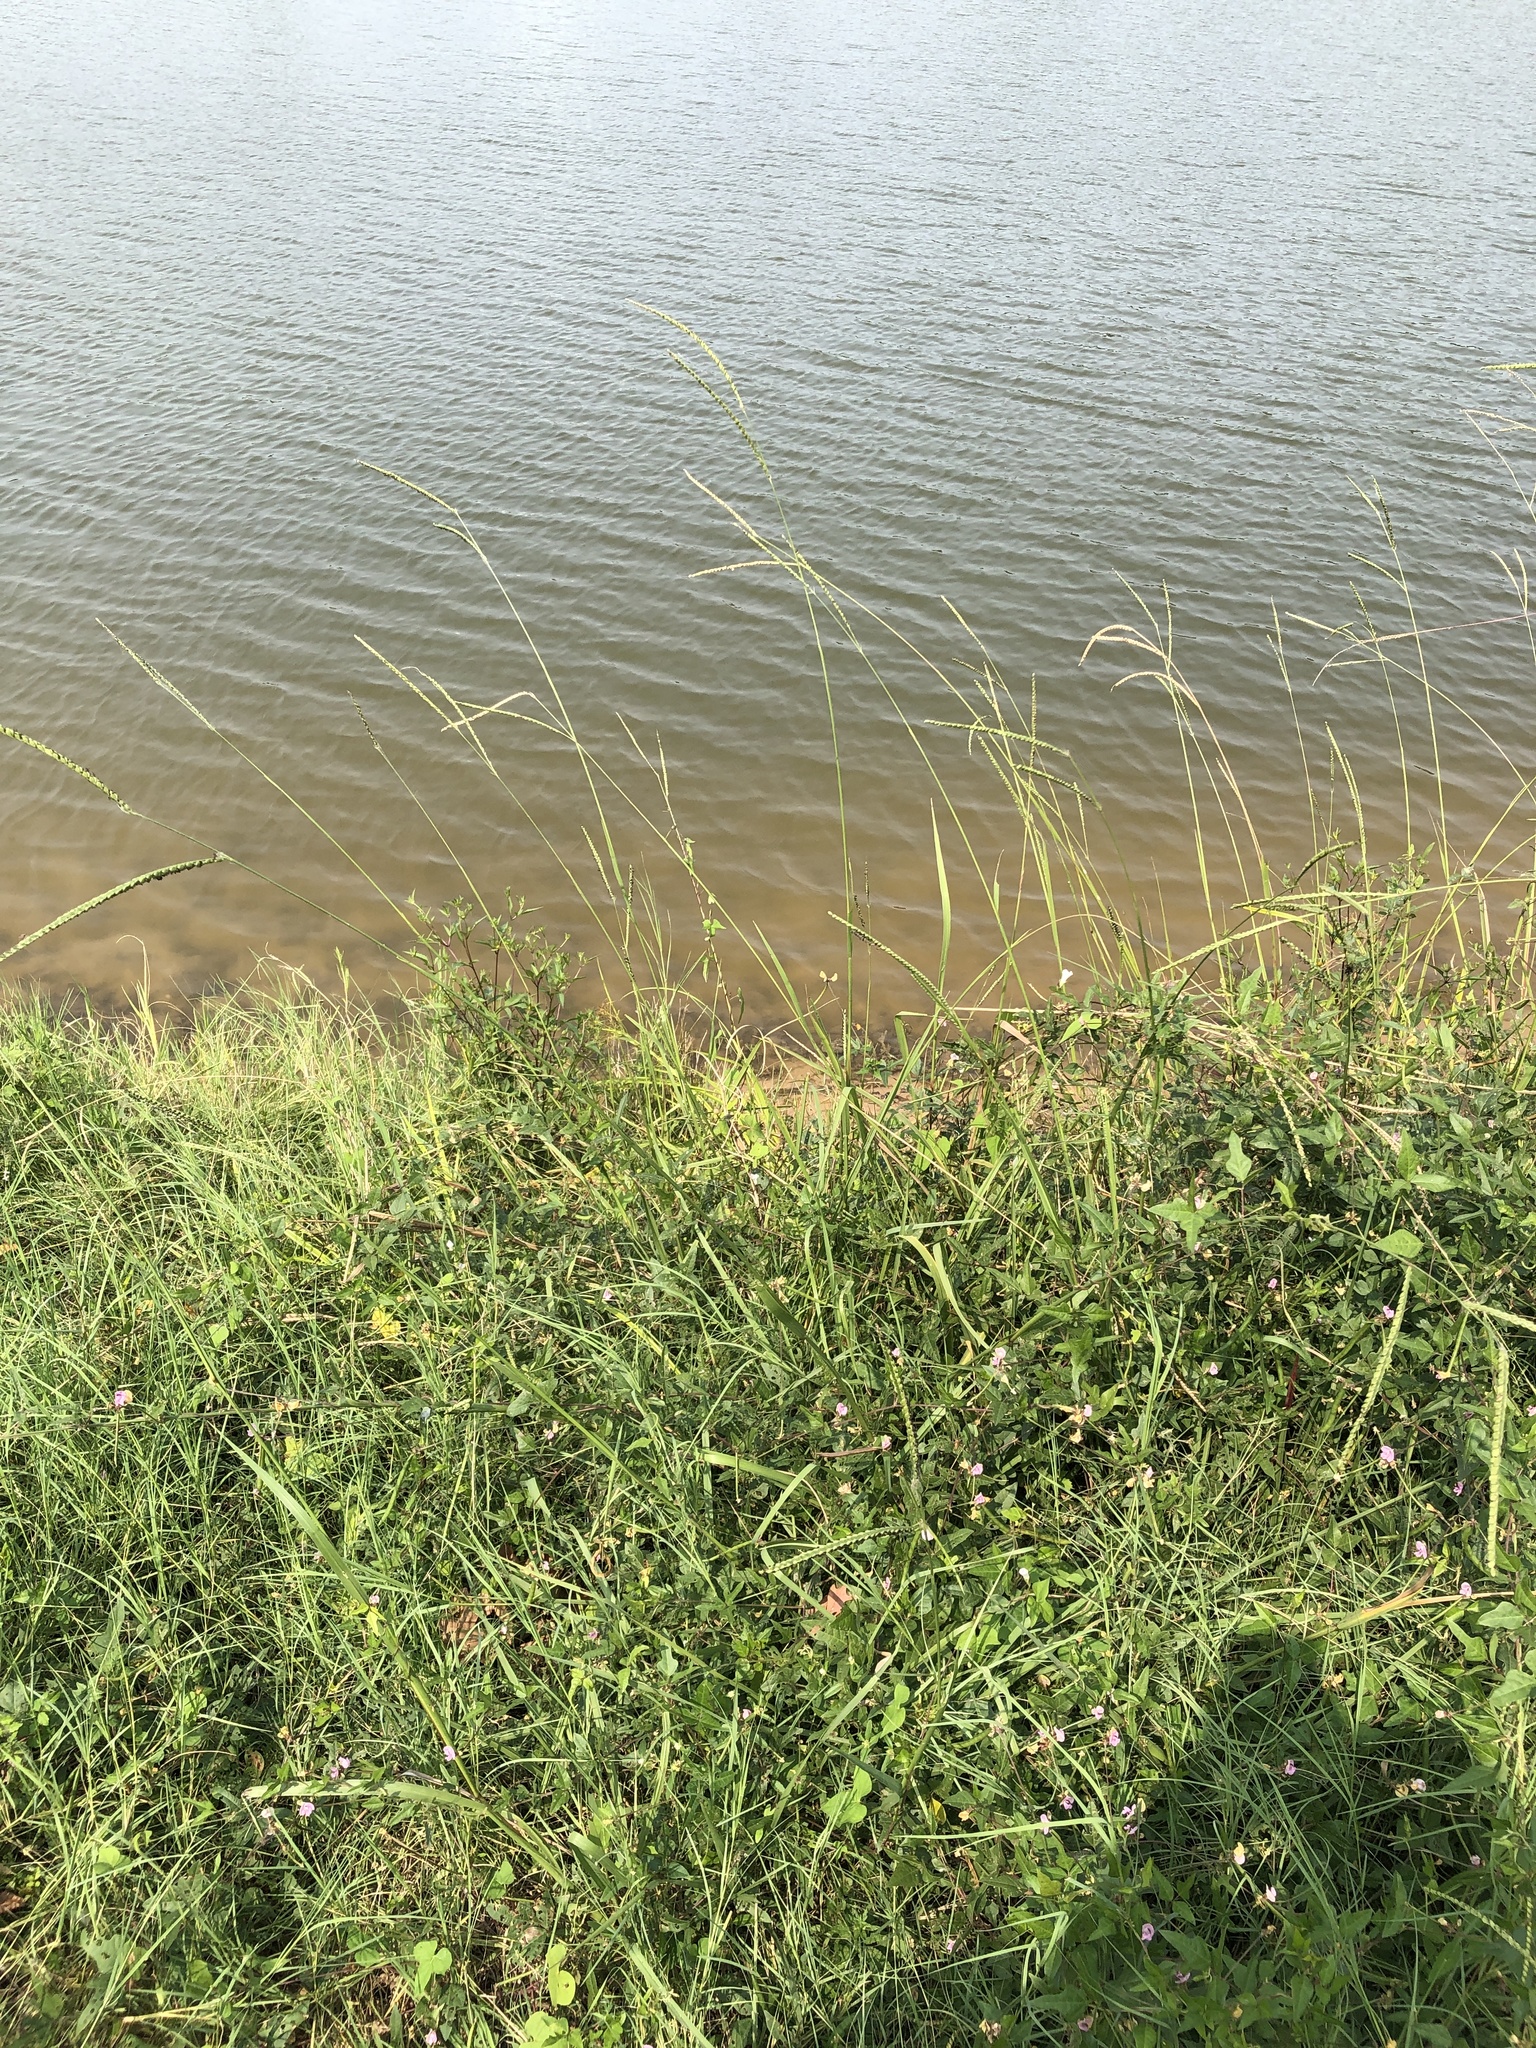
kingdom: Plantae
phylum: Tracheophyta
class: Liliopsida
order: Poales
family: Poaceae
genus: Paspalum
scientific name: Paspalum floridanum
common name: Florida paspalum
